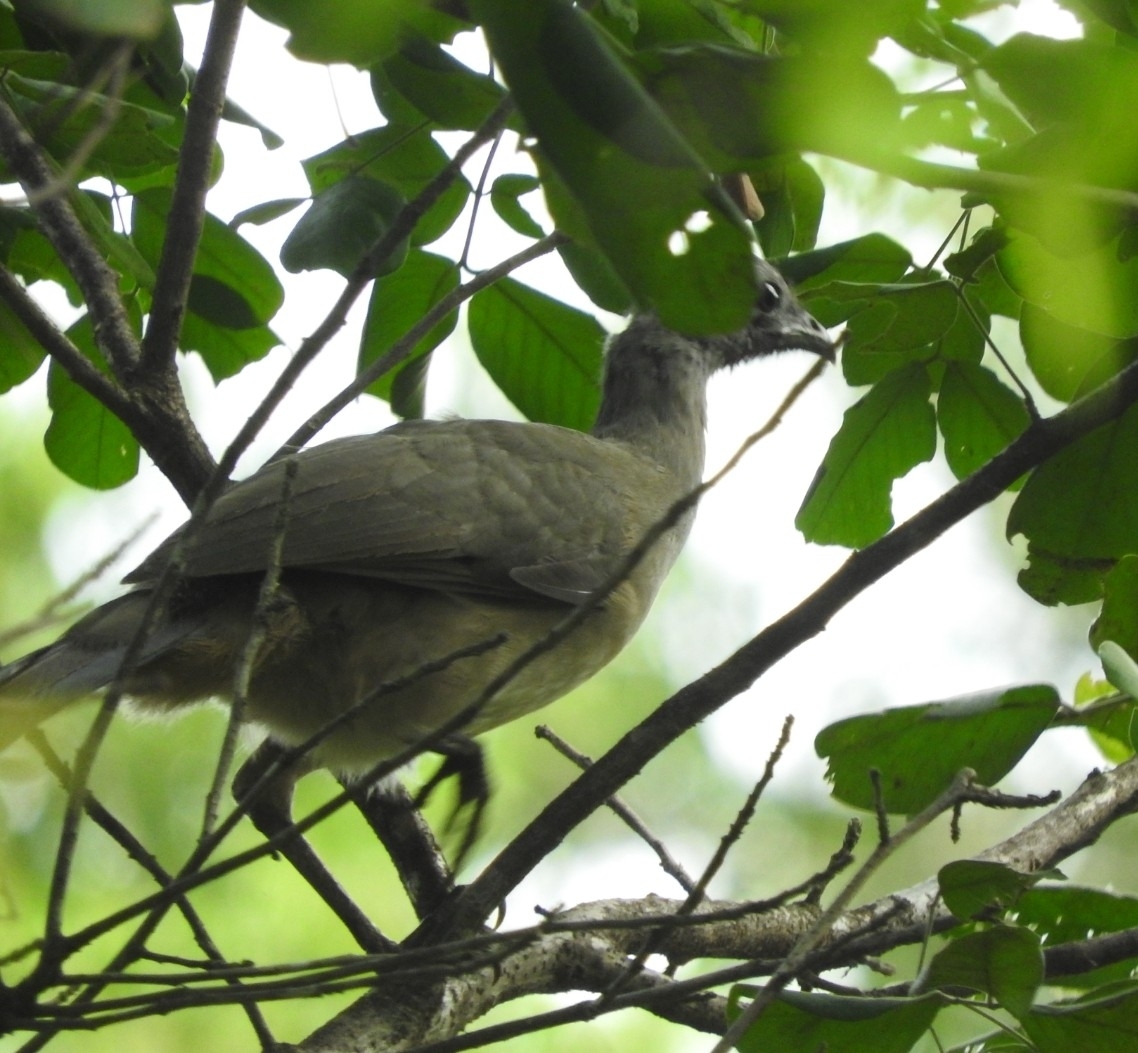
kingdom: Animalia
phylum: Chordata
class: Aves
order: Galliformes
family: Cracidae
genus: Ortalis
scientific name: Ortalis vetula
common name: Plain chachalaca
